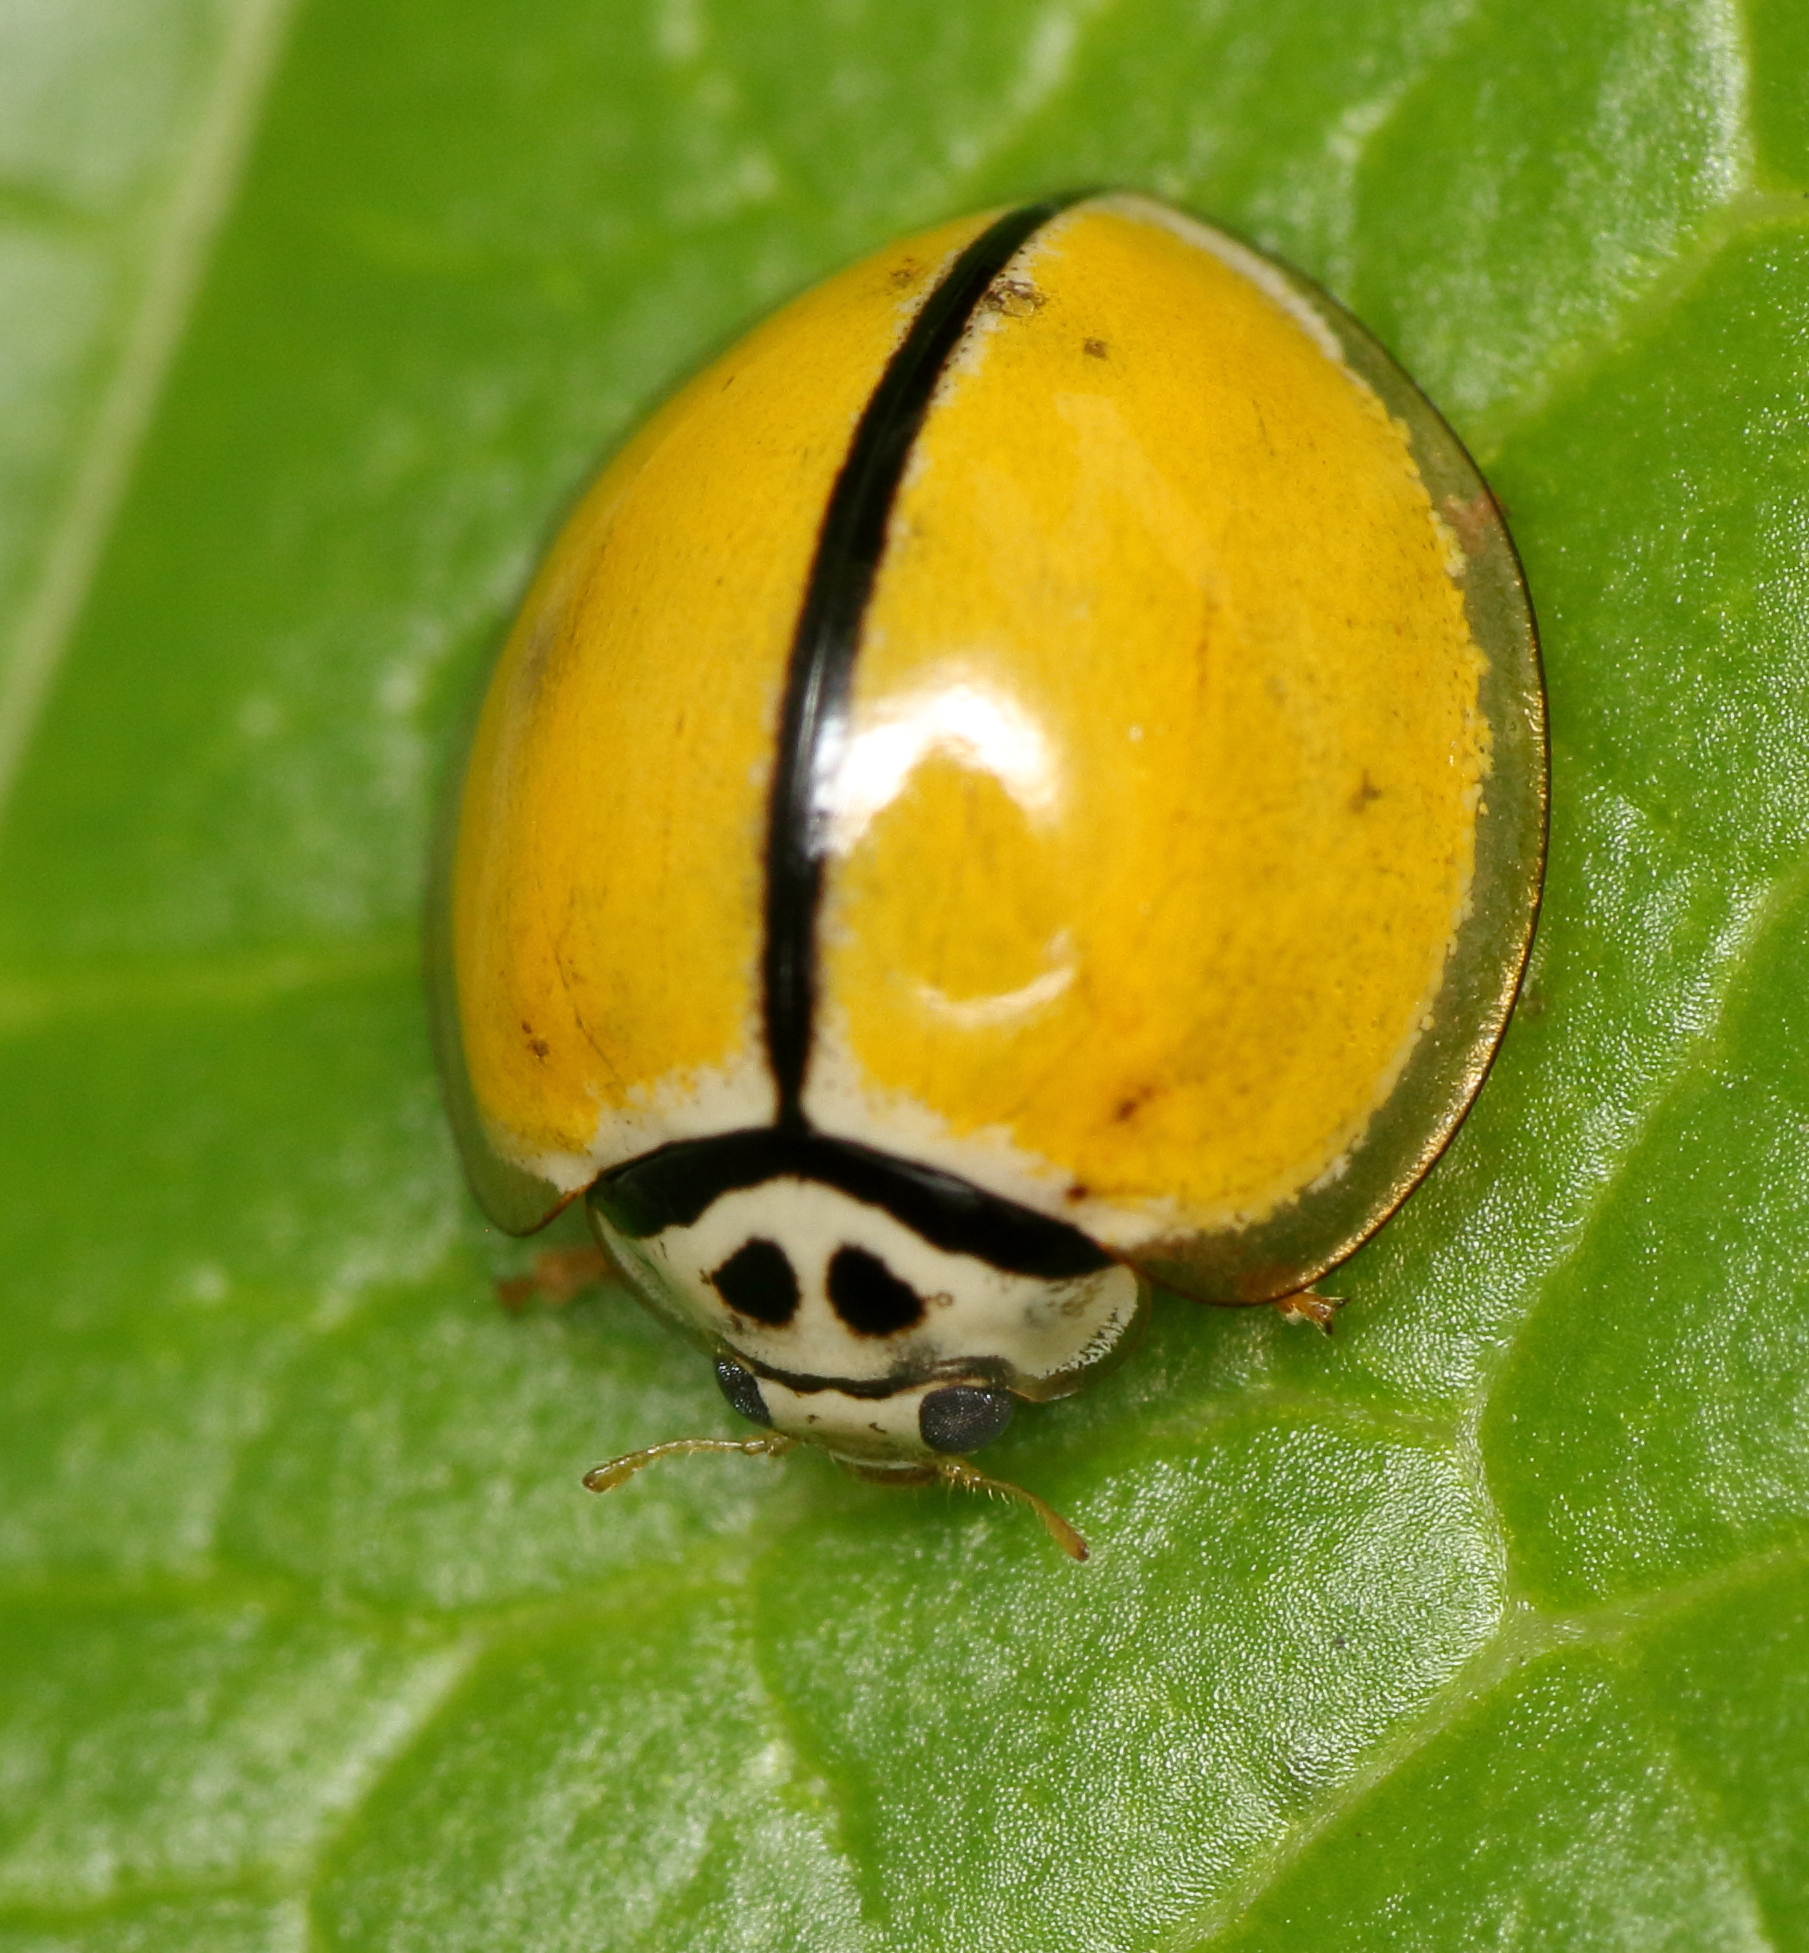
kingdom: Animalia
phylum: Arthropoda
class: Insecta
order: Coleoptera
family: Coccinellidae
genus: Oenopia
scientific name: Oenopia
